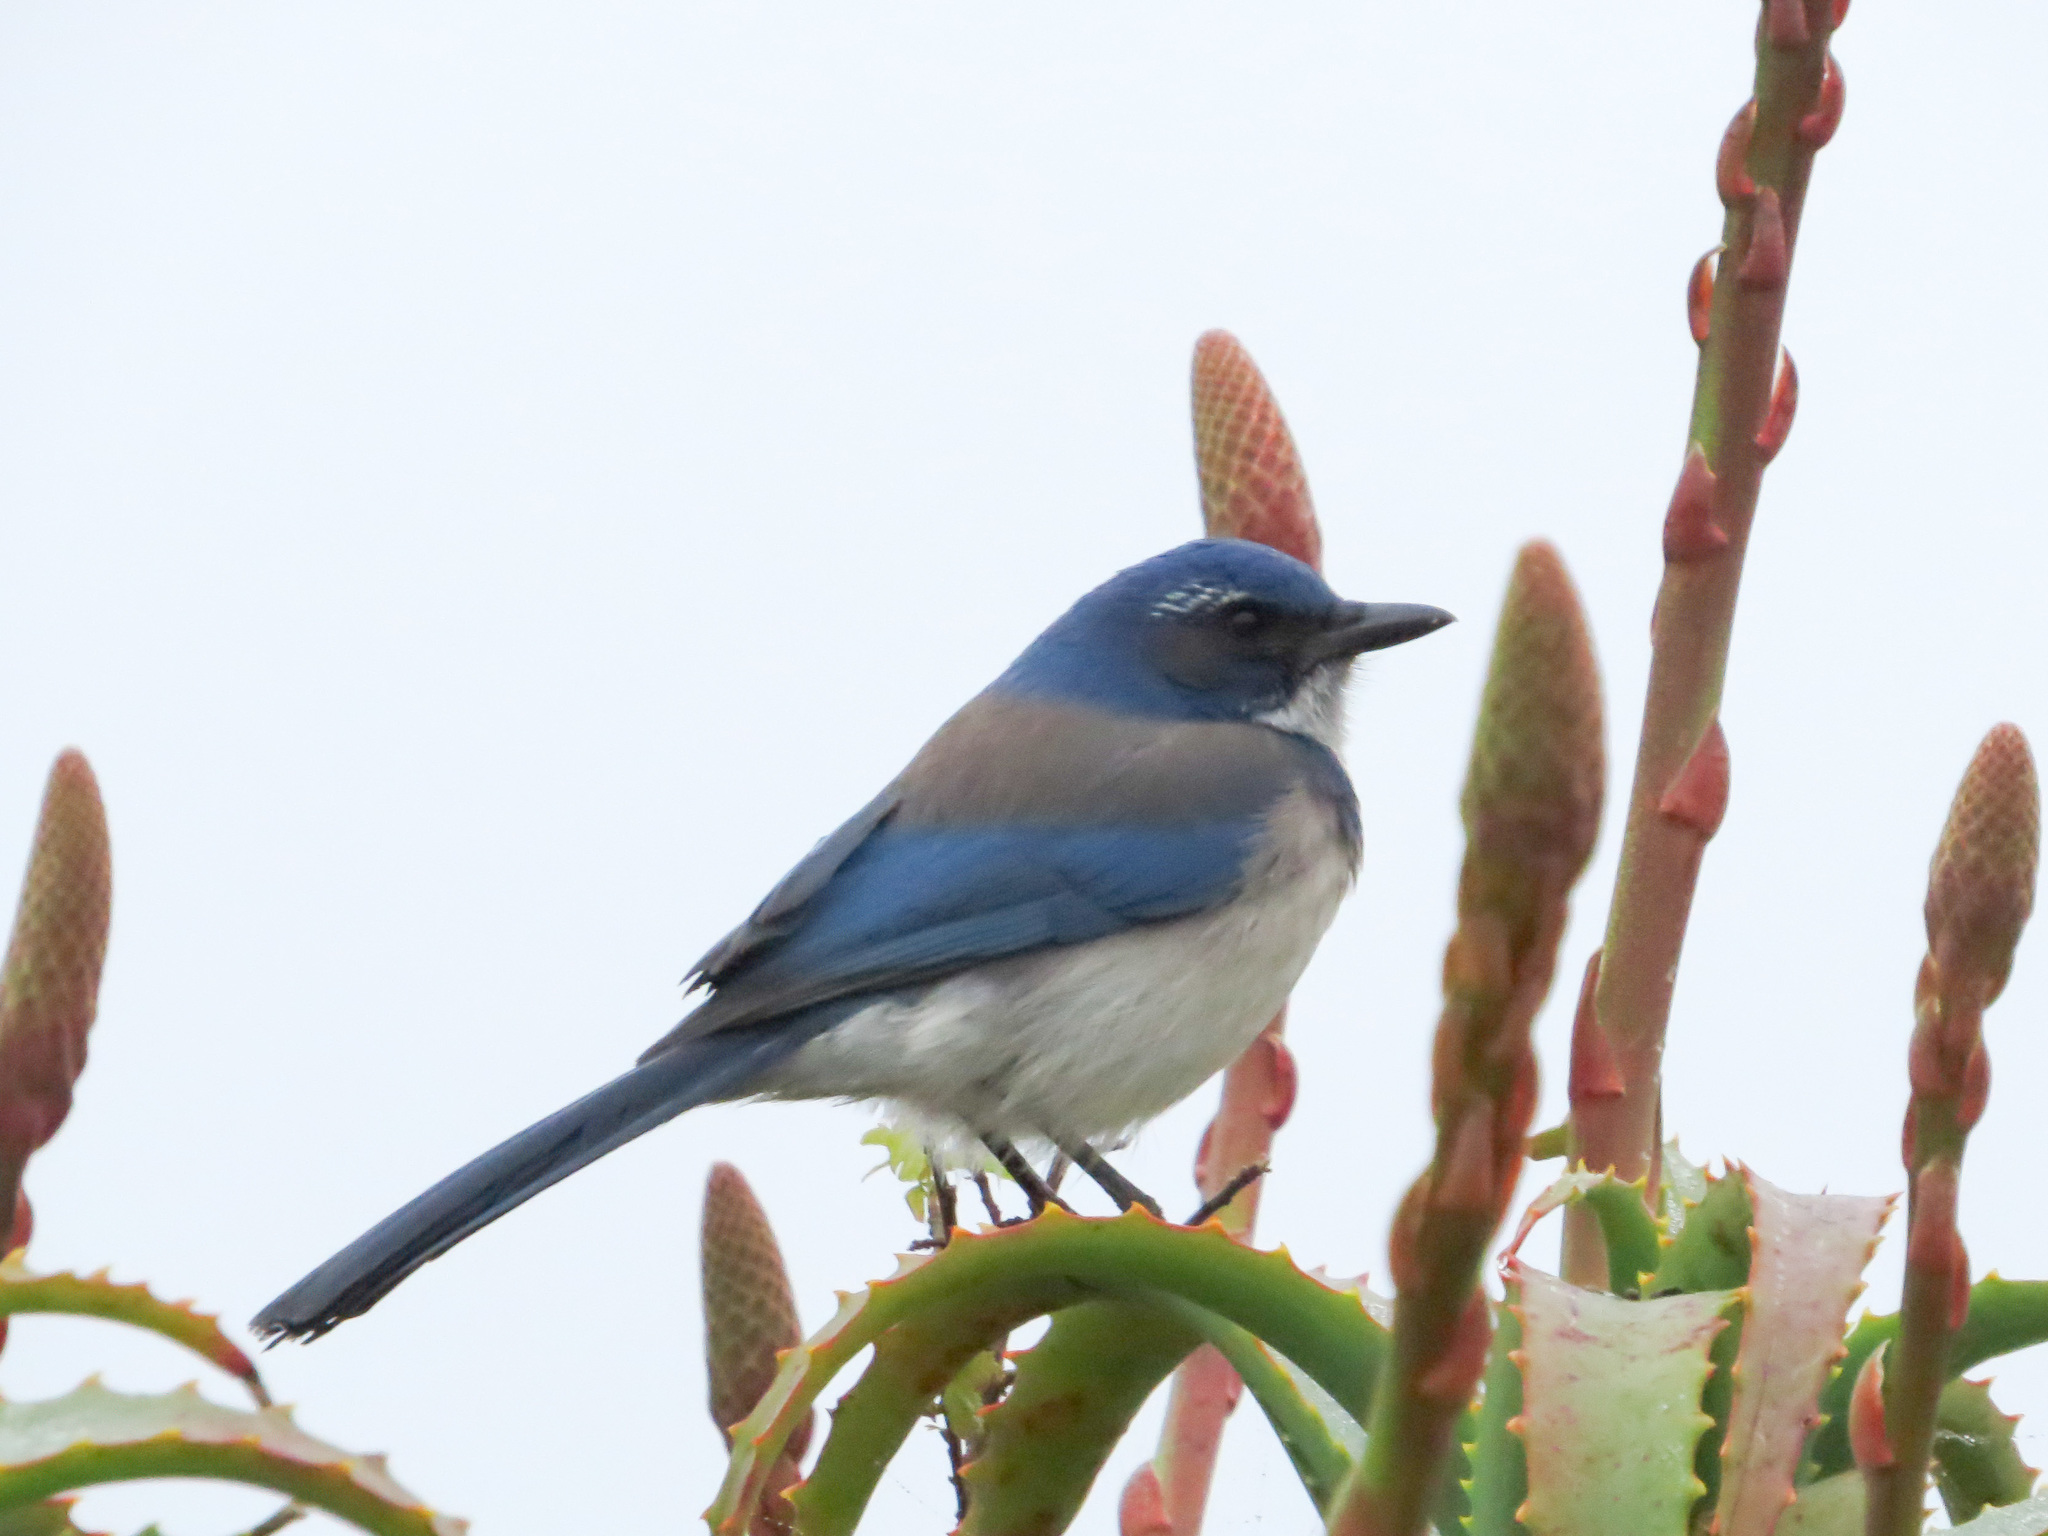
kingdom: Animalia
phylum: Chordata
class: Aves
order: Passeriformes
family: Corvidae
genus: Aphelocoma
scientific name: Aphelocoma californica
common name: California scrub-jay
